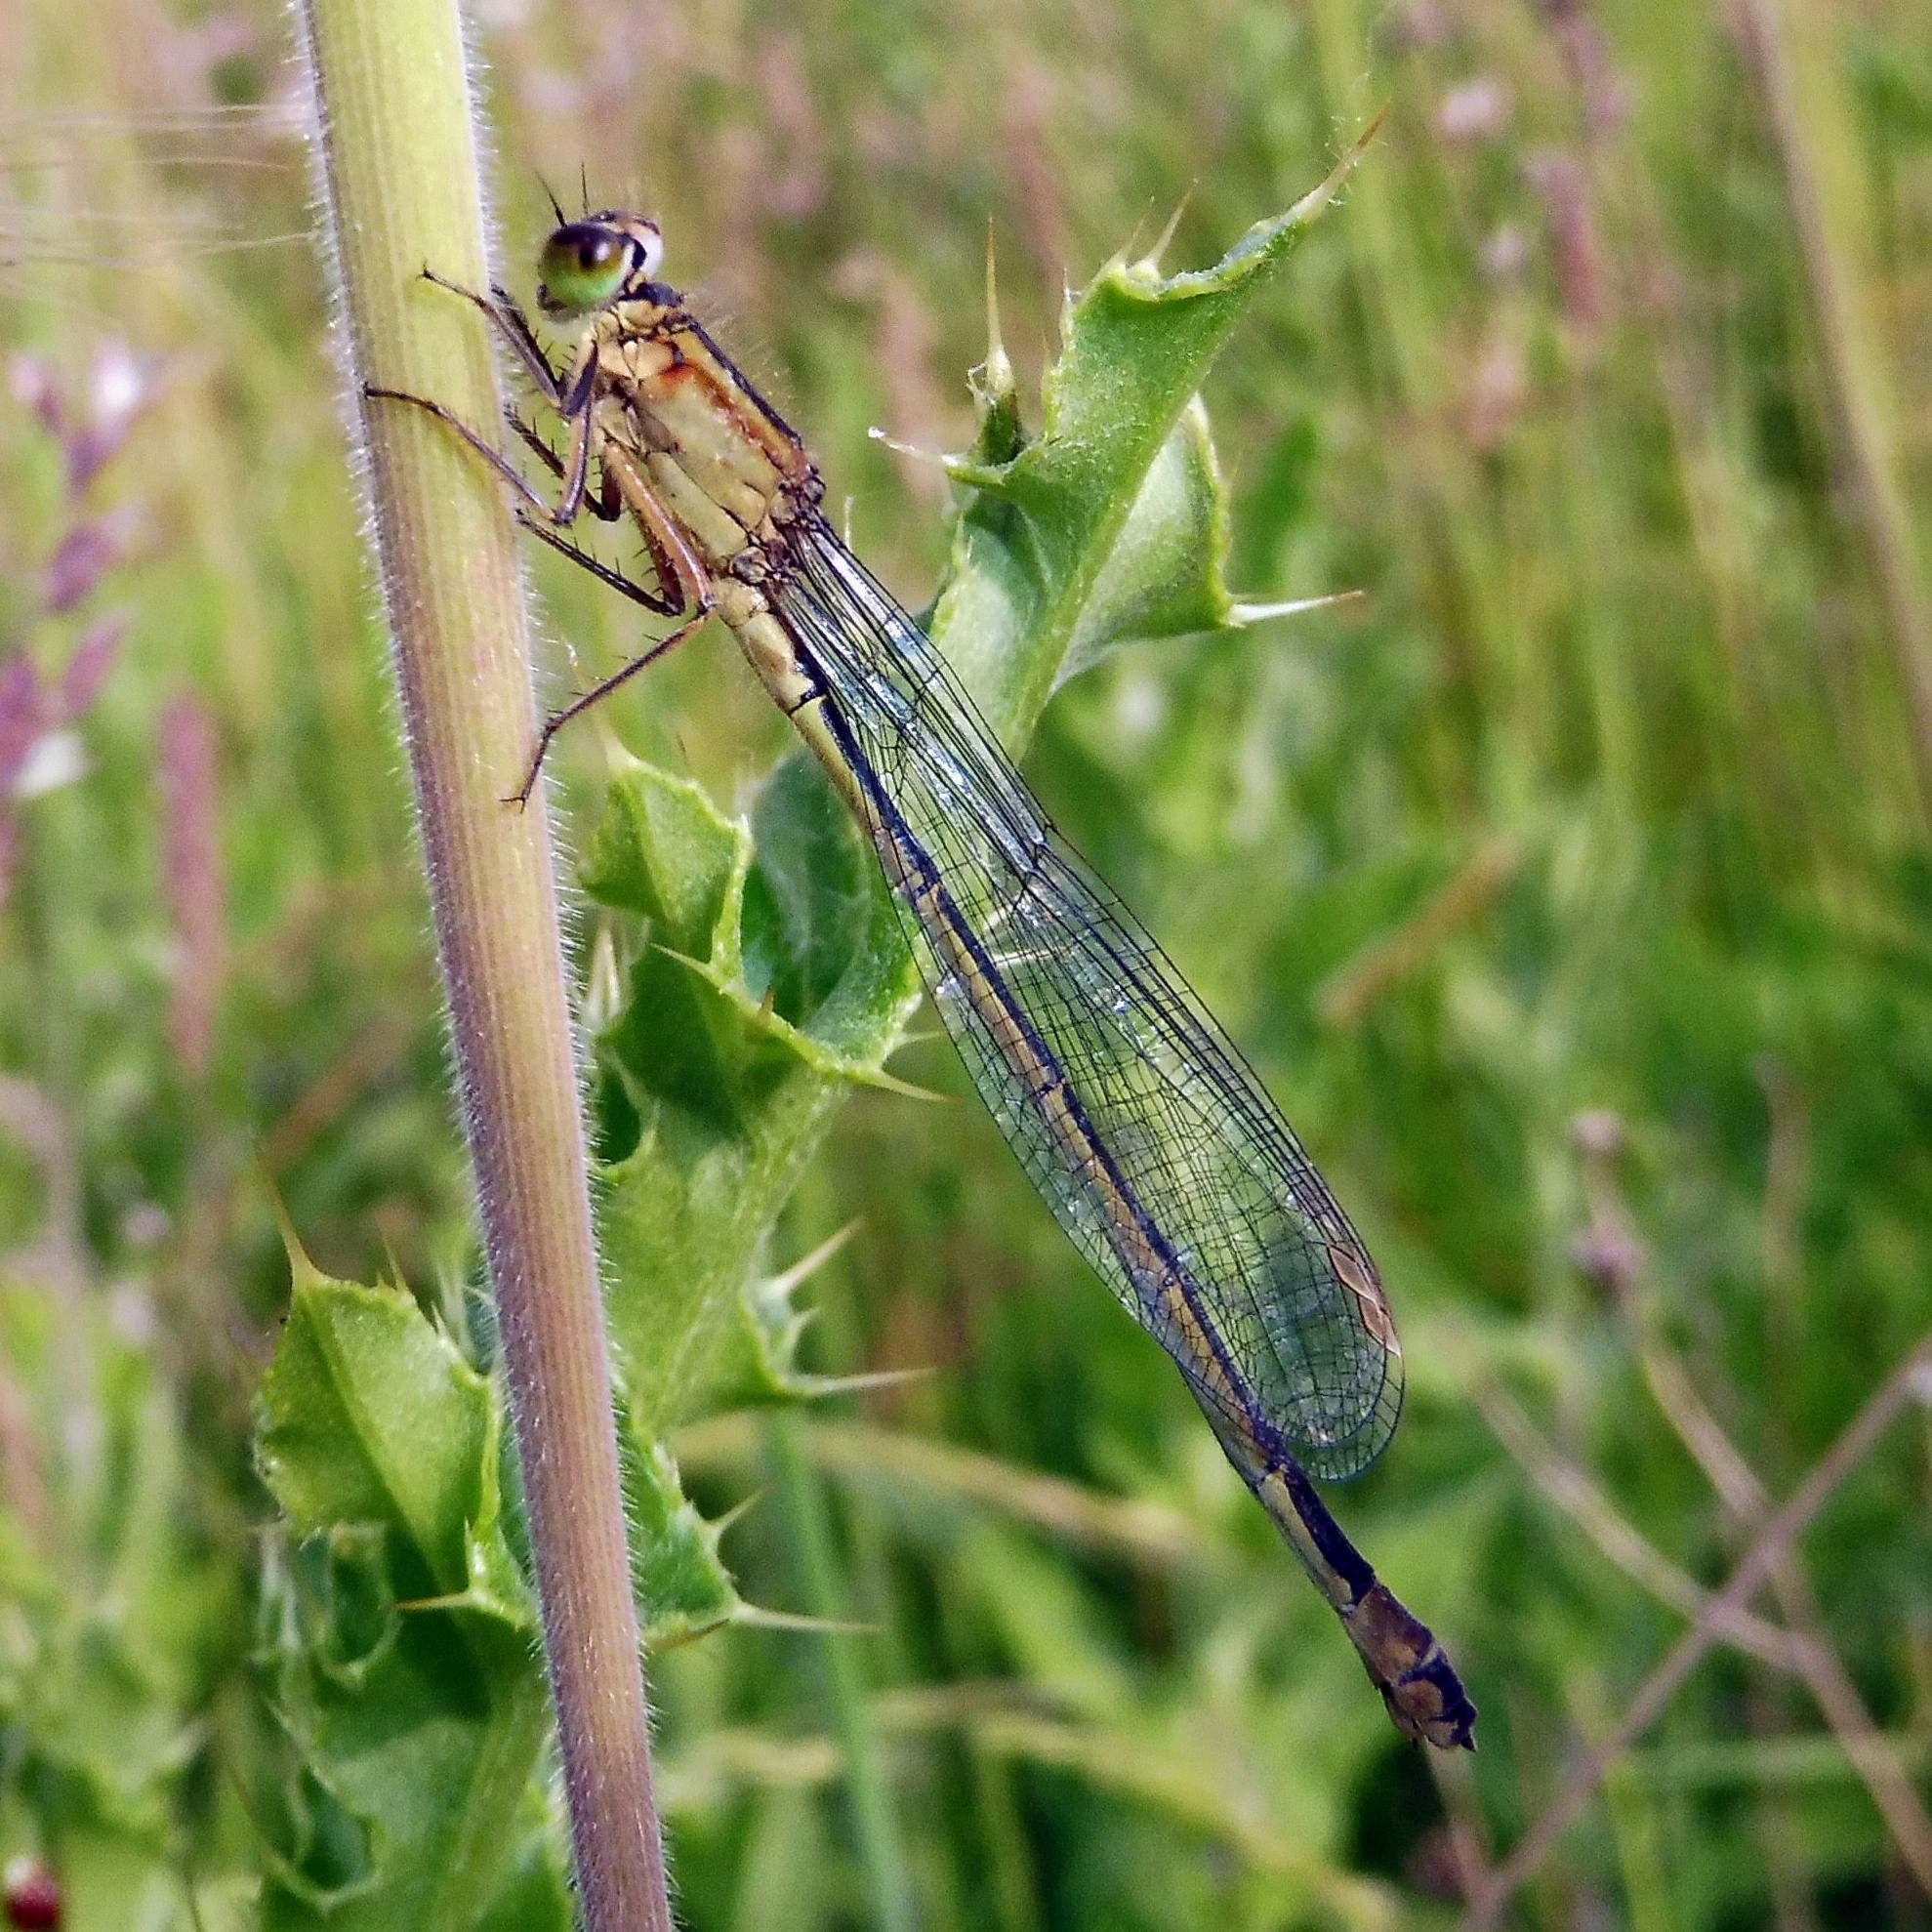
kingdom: Animalia
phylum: Arthropoda
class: Insecta
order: Odonata
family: Coenagrionidae
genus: Ischnura
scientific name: Ischnura elegans
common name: Blue-tailed damselfly
